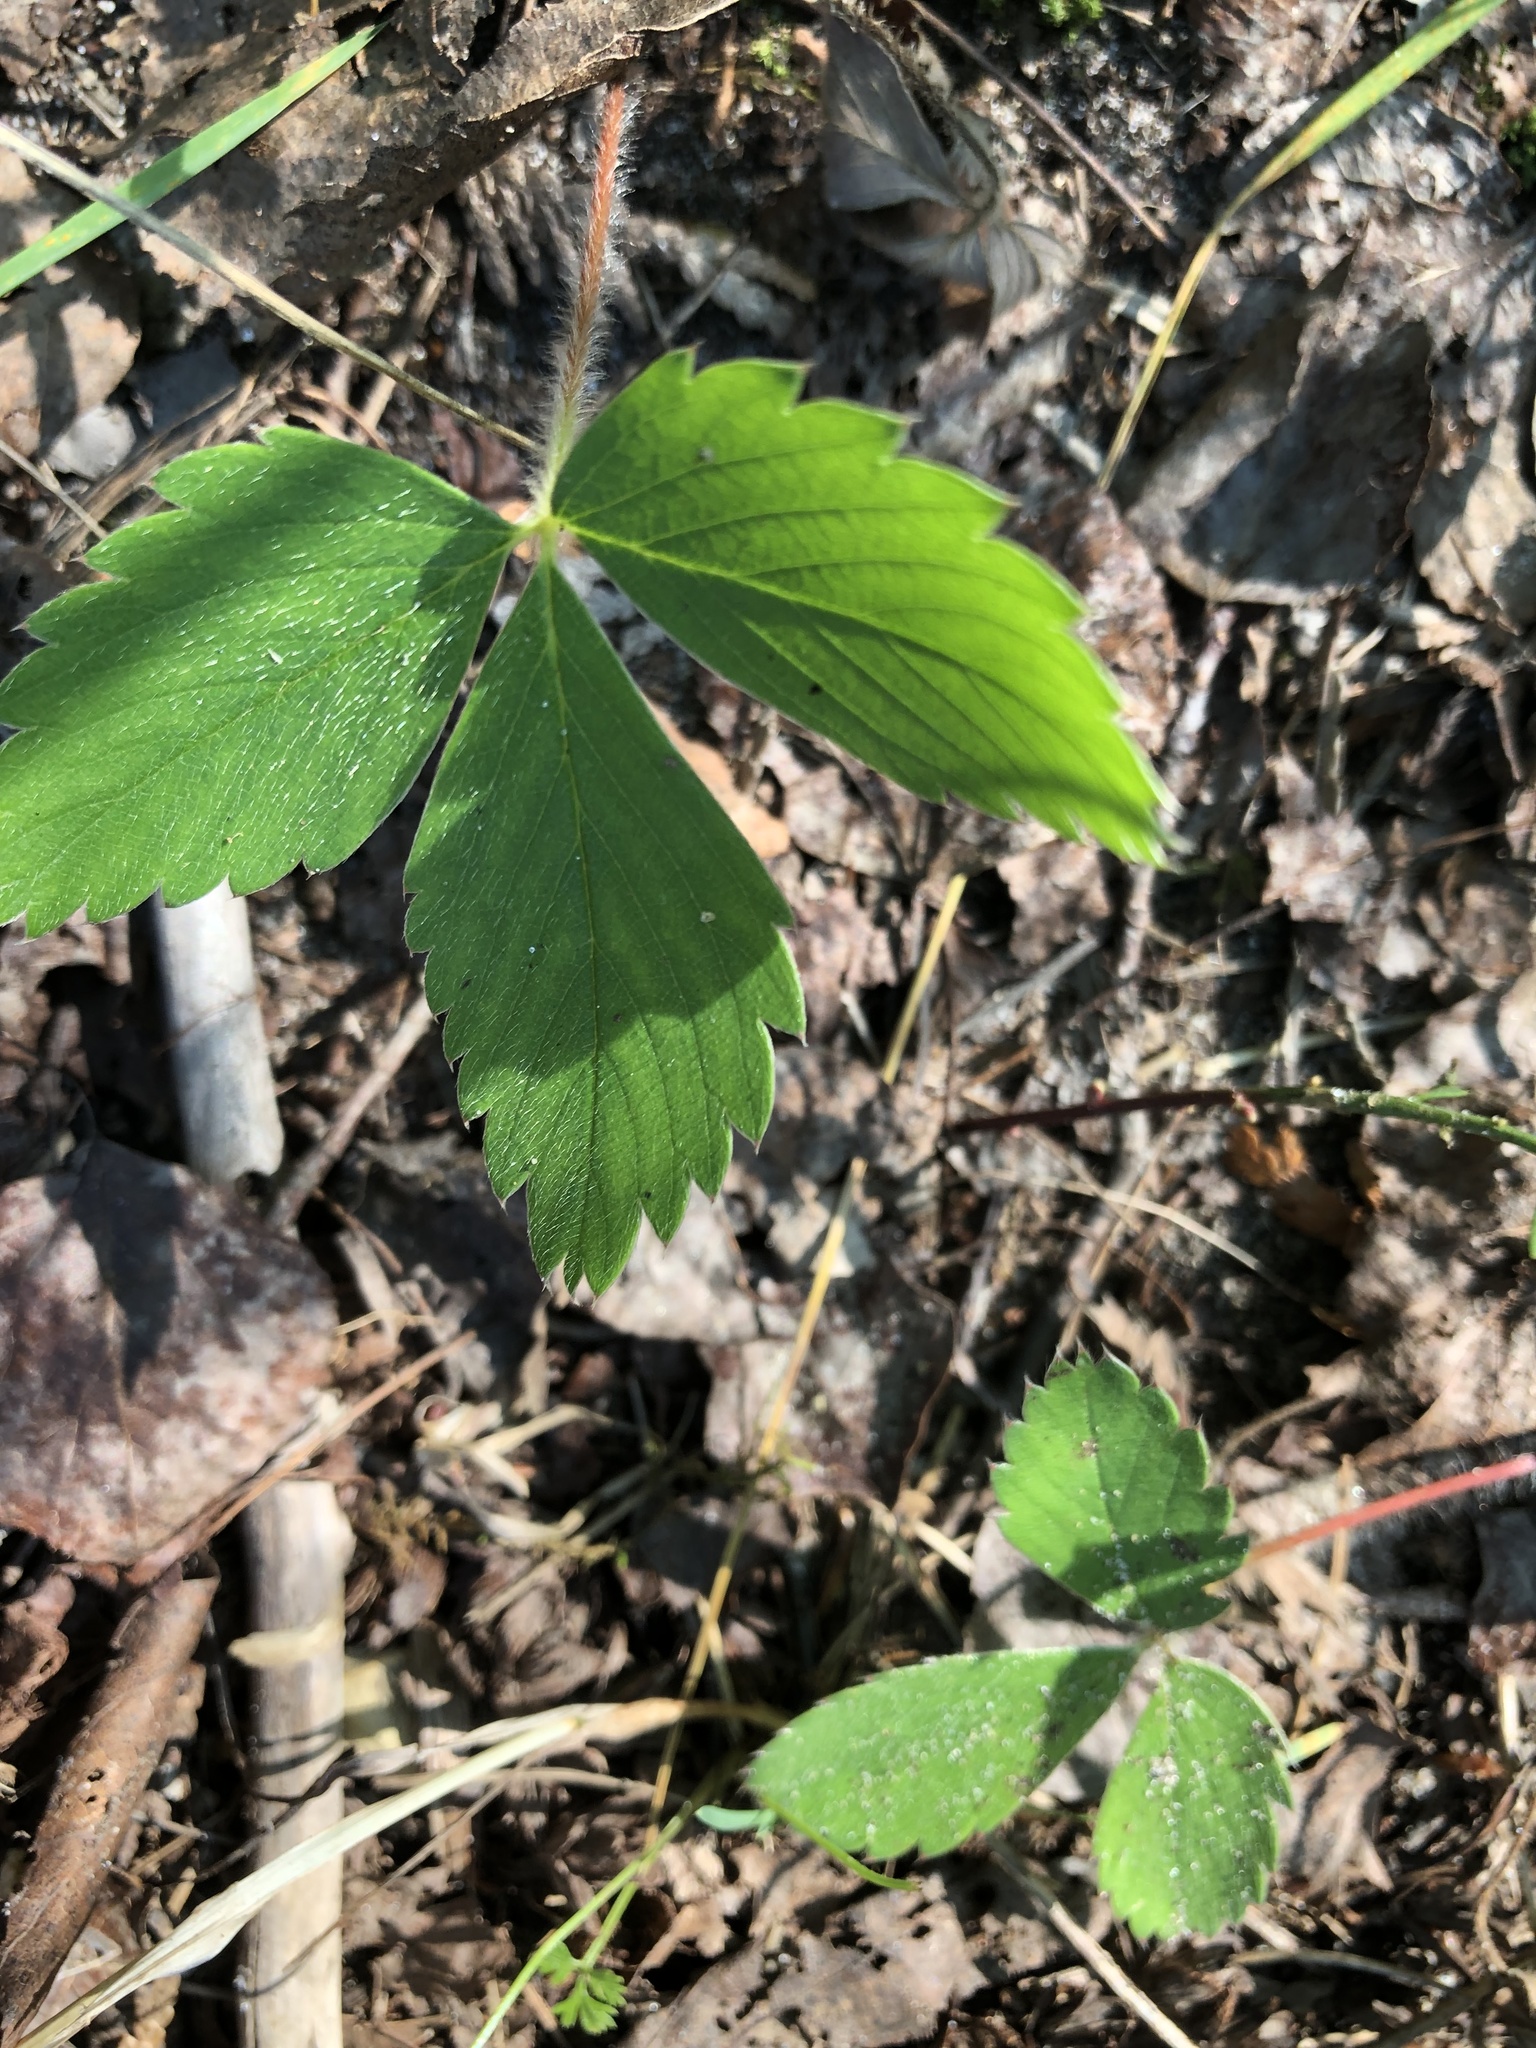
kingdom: Plantae
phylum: Tracheophyta
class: Magnoliopsida
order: Rosales
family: Rosaceae
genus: Fragaria
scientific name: Fragaria virginiana
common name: Thickleaved wild strawberry
